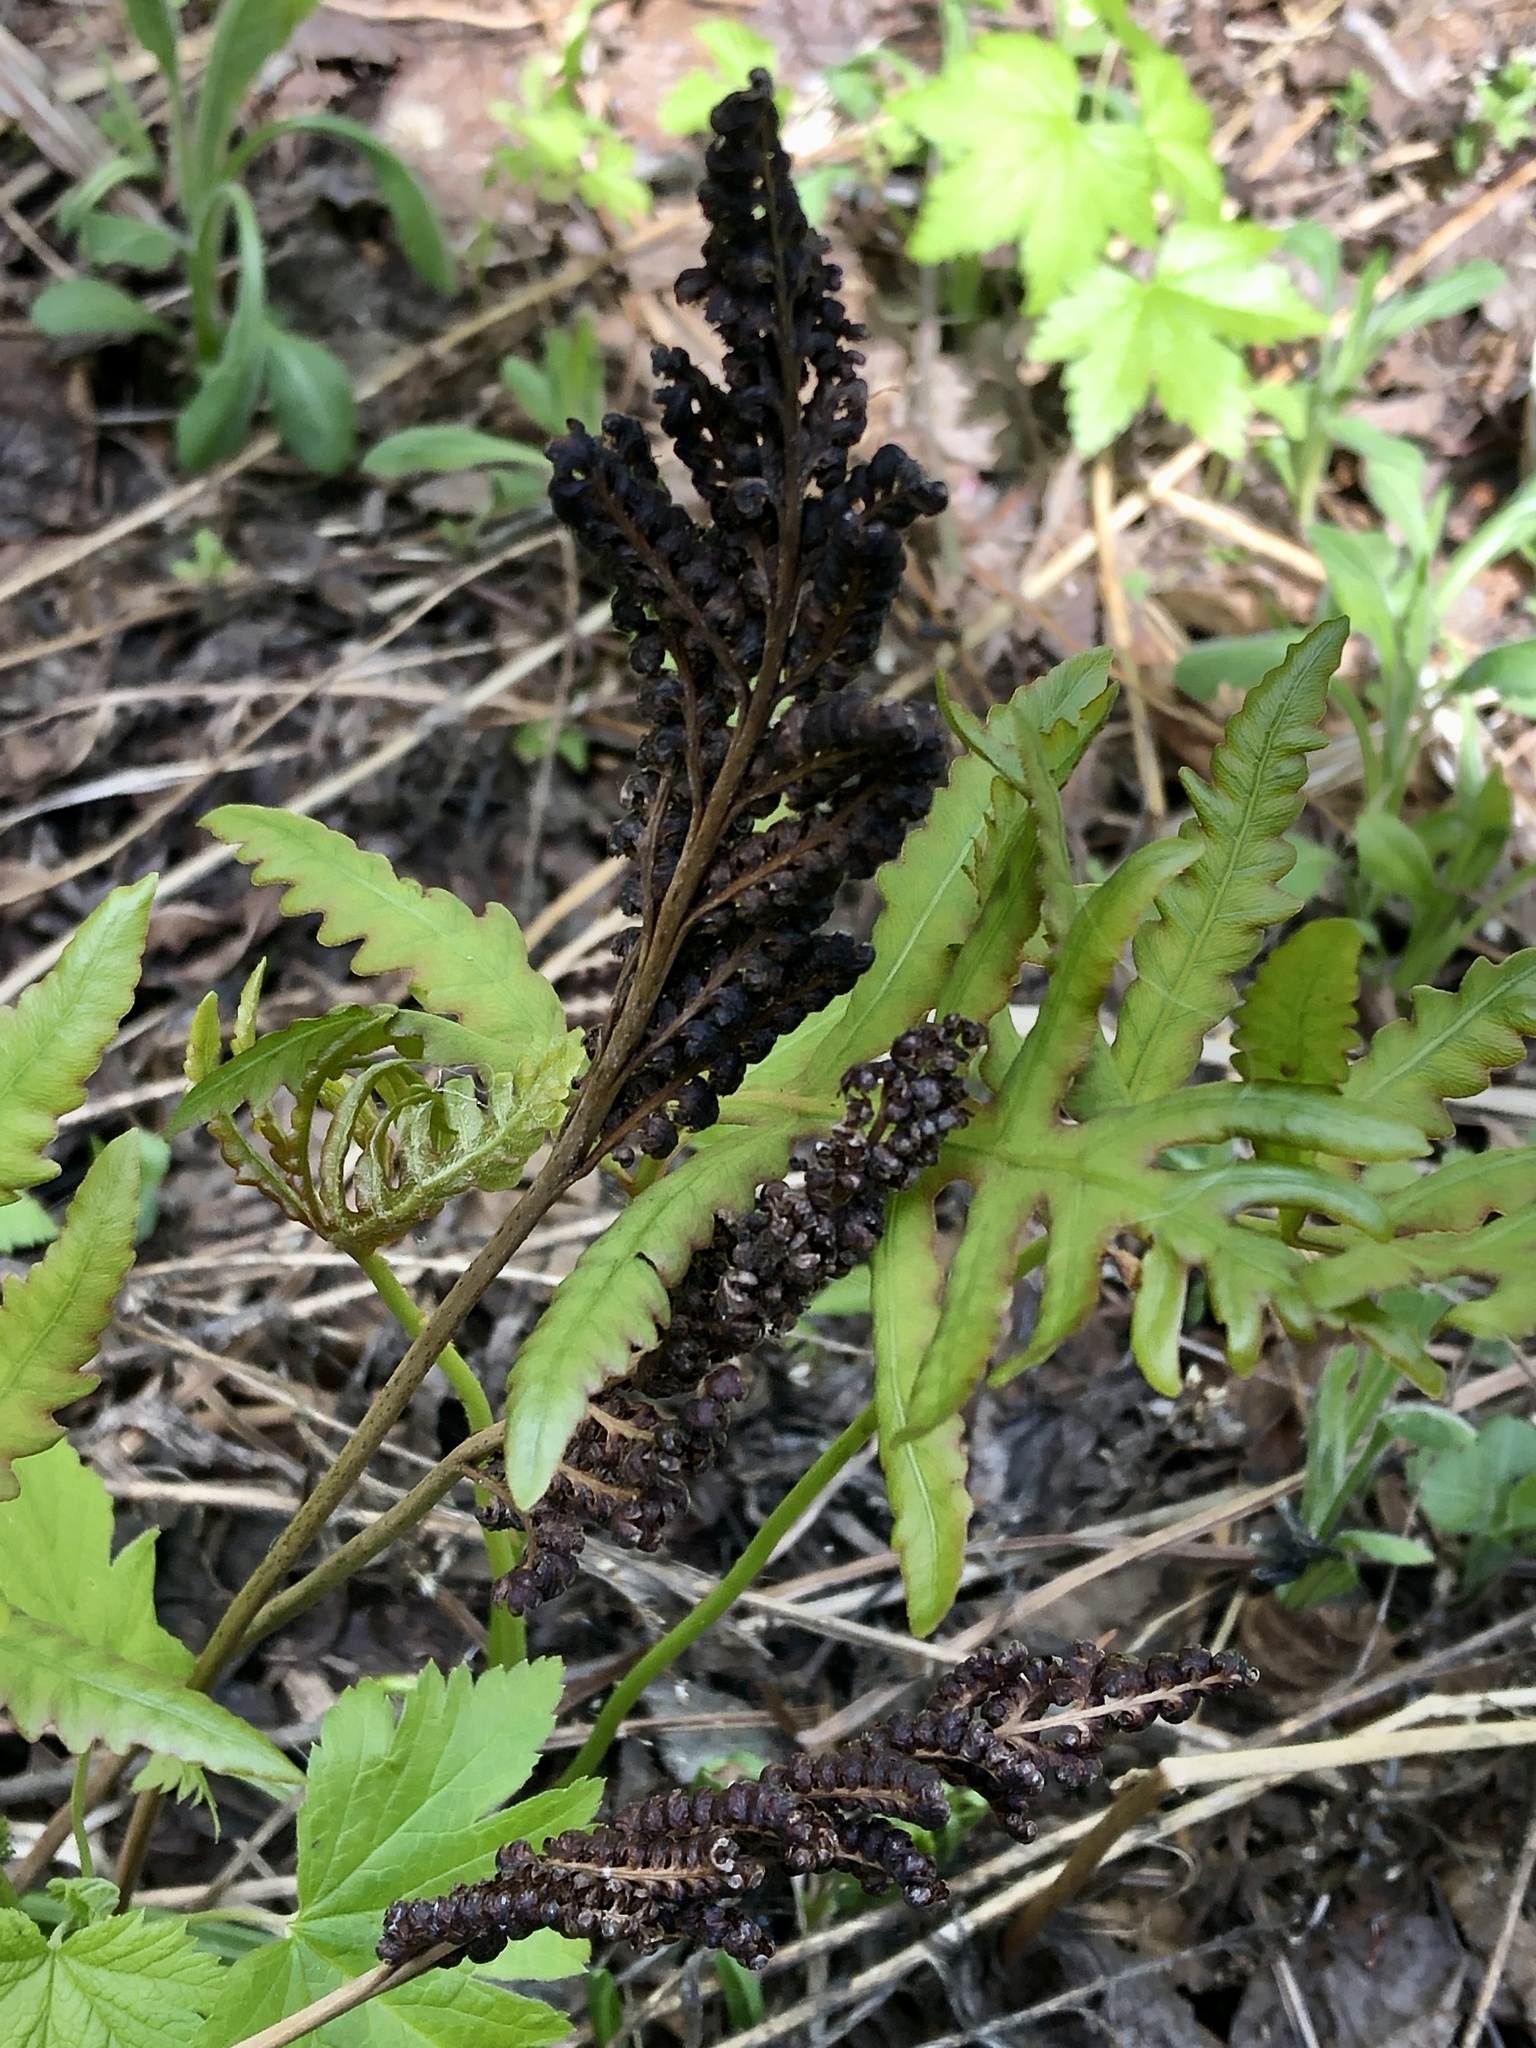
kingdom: Plantae
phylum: Tracheophyta
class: Polypodiopsida
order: Polypodiales
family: Onocleaceae
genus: Onoclea
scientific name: Onoclea sensibilis
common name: Sensitive fern
